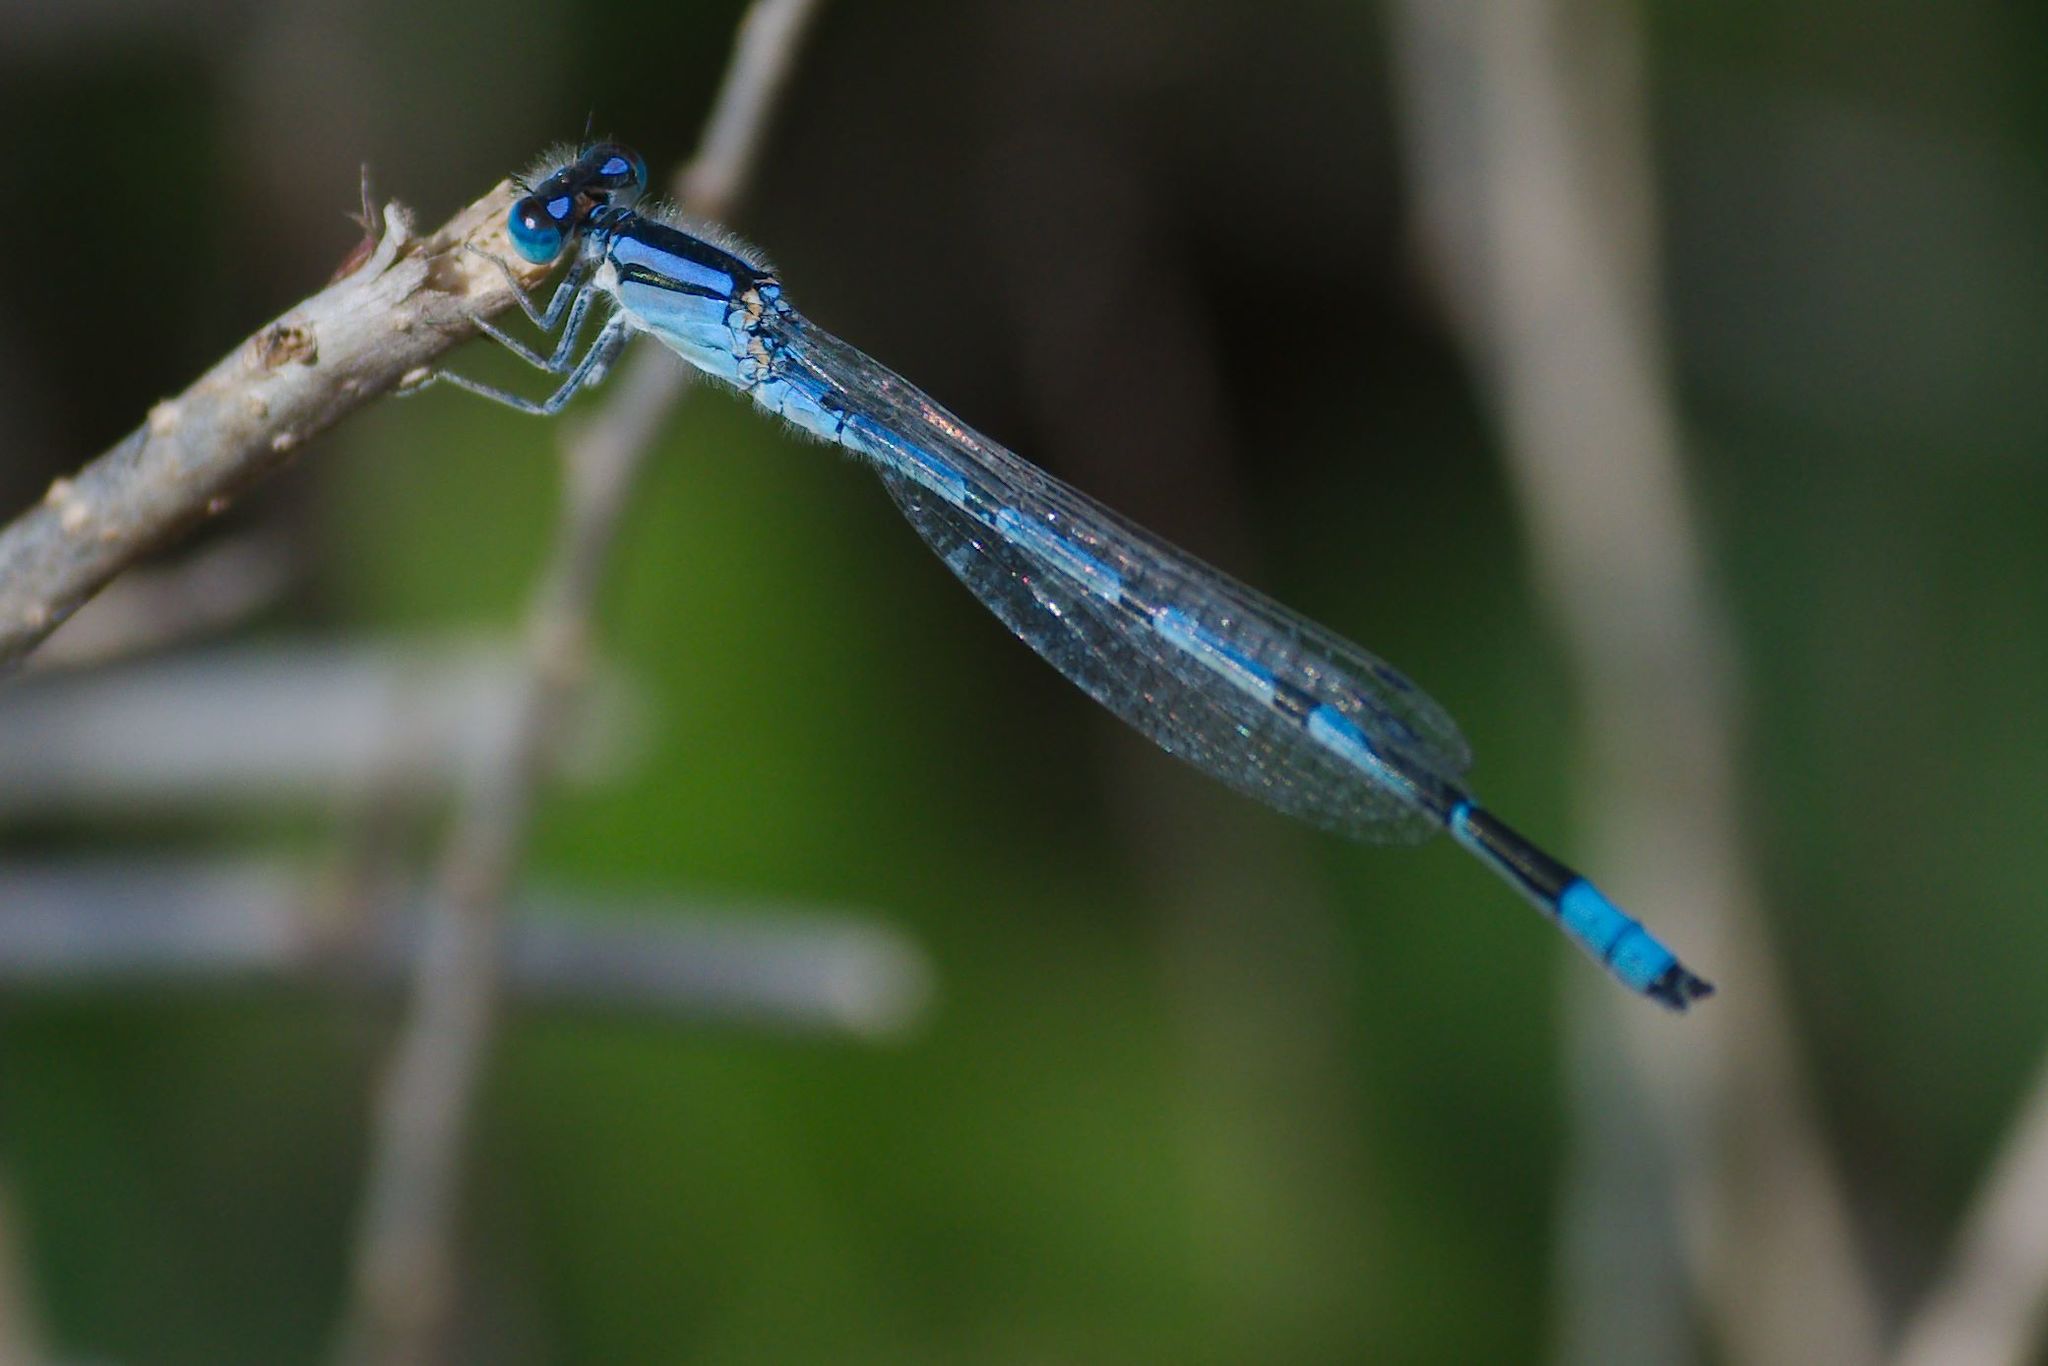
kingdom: Animalia
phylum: Arthropoda
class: Insecta
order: Odonata
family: Coenagrionidae
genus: Enallagma
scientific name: Enallagma civile
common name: Damselfly
